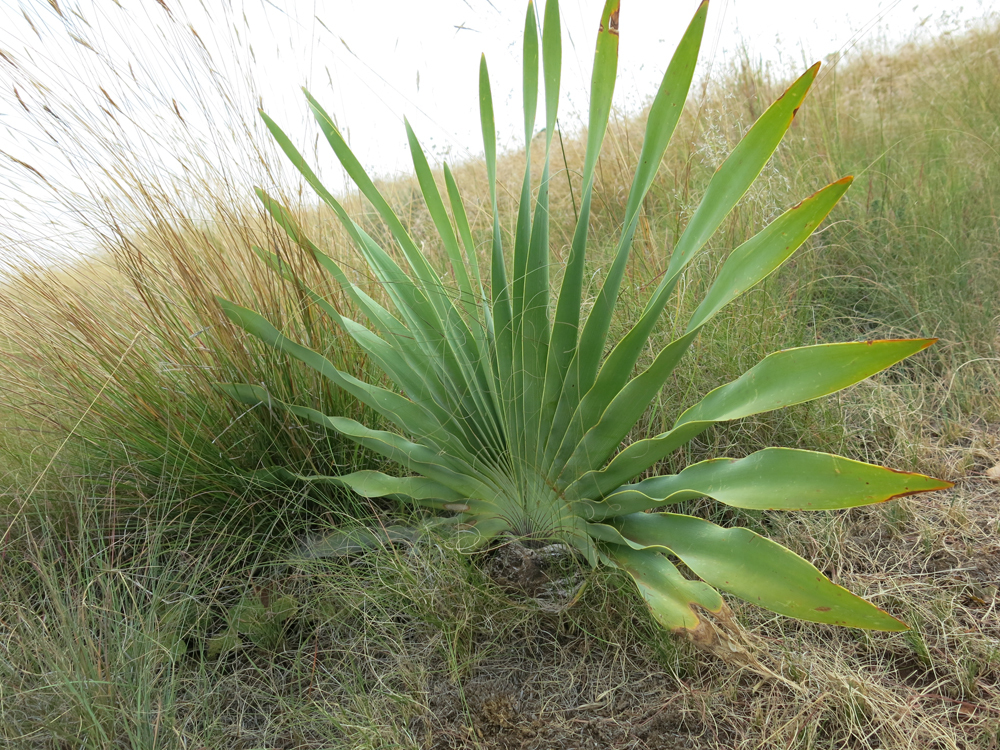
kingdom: Plantae
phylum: Tracheophyta
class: Liliopsida
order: Asparagales
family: Amaryllidaceae
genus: Boophone
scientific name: Boophone disticha
